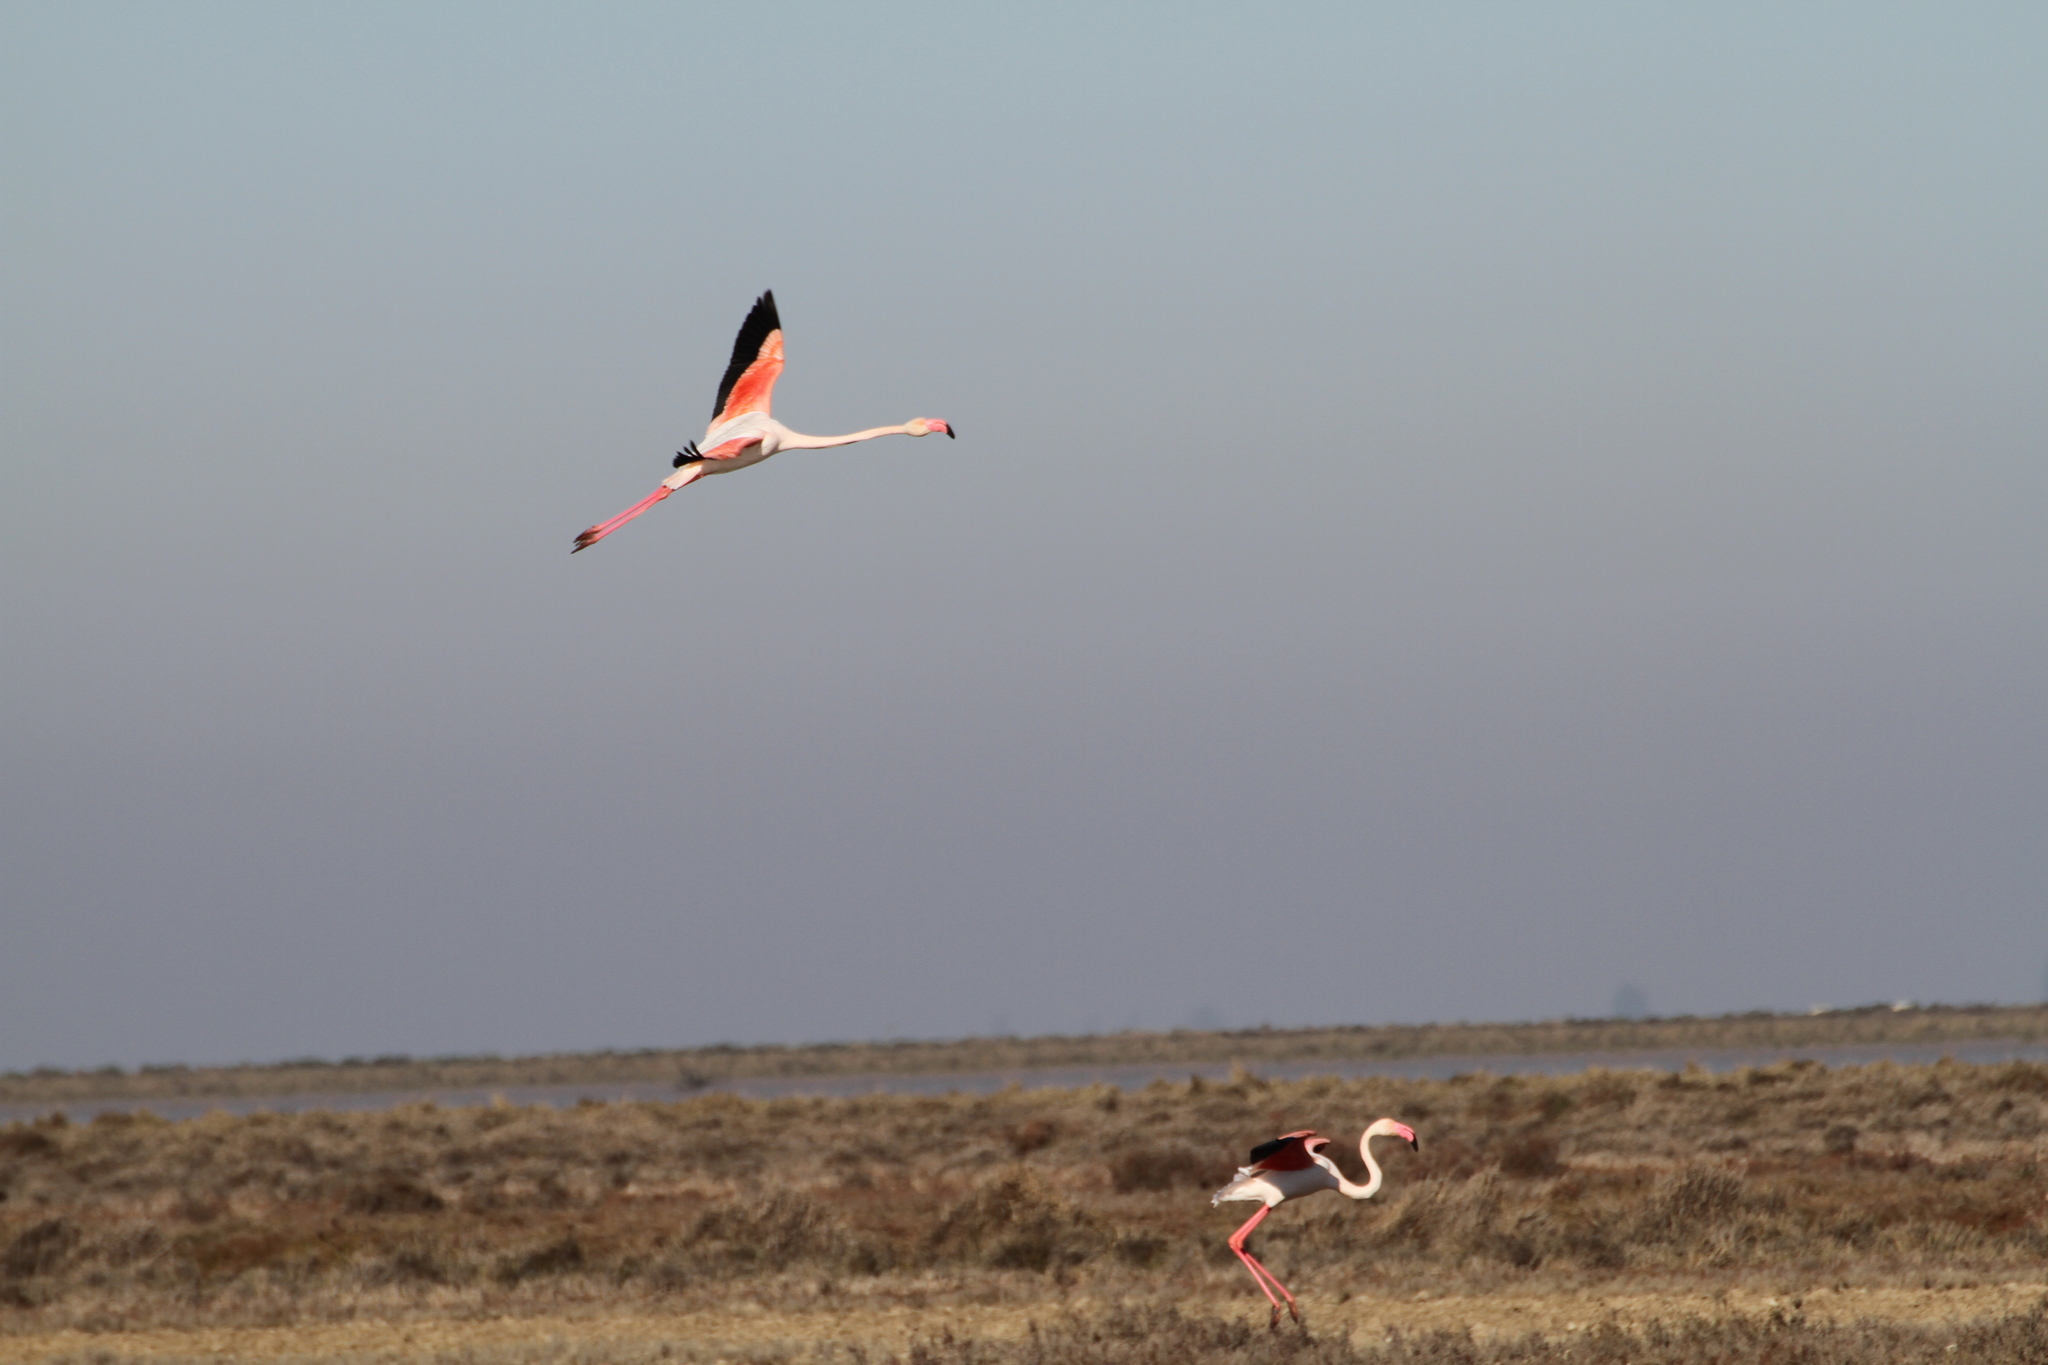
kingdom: Animalia
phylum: Chordata
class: Aves
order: Phoenicopteriformes
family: Phoenicopteridae
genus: Phoenicopterus
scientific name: Phoenicopterus roseus
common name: Greater flamingo
